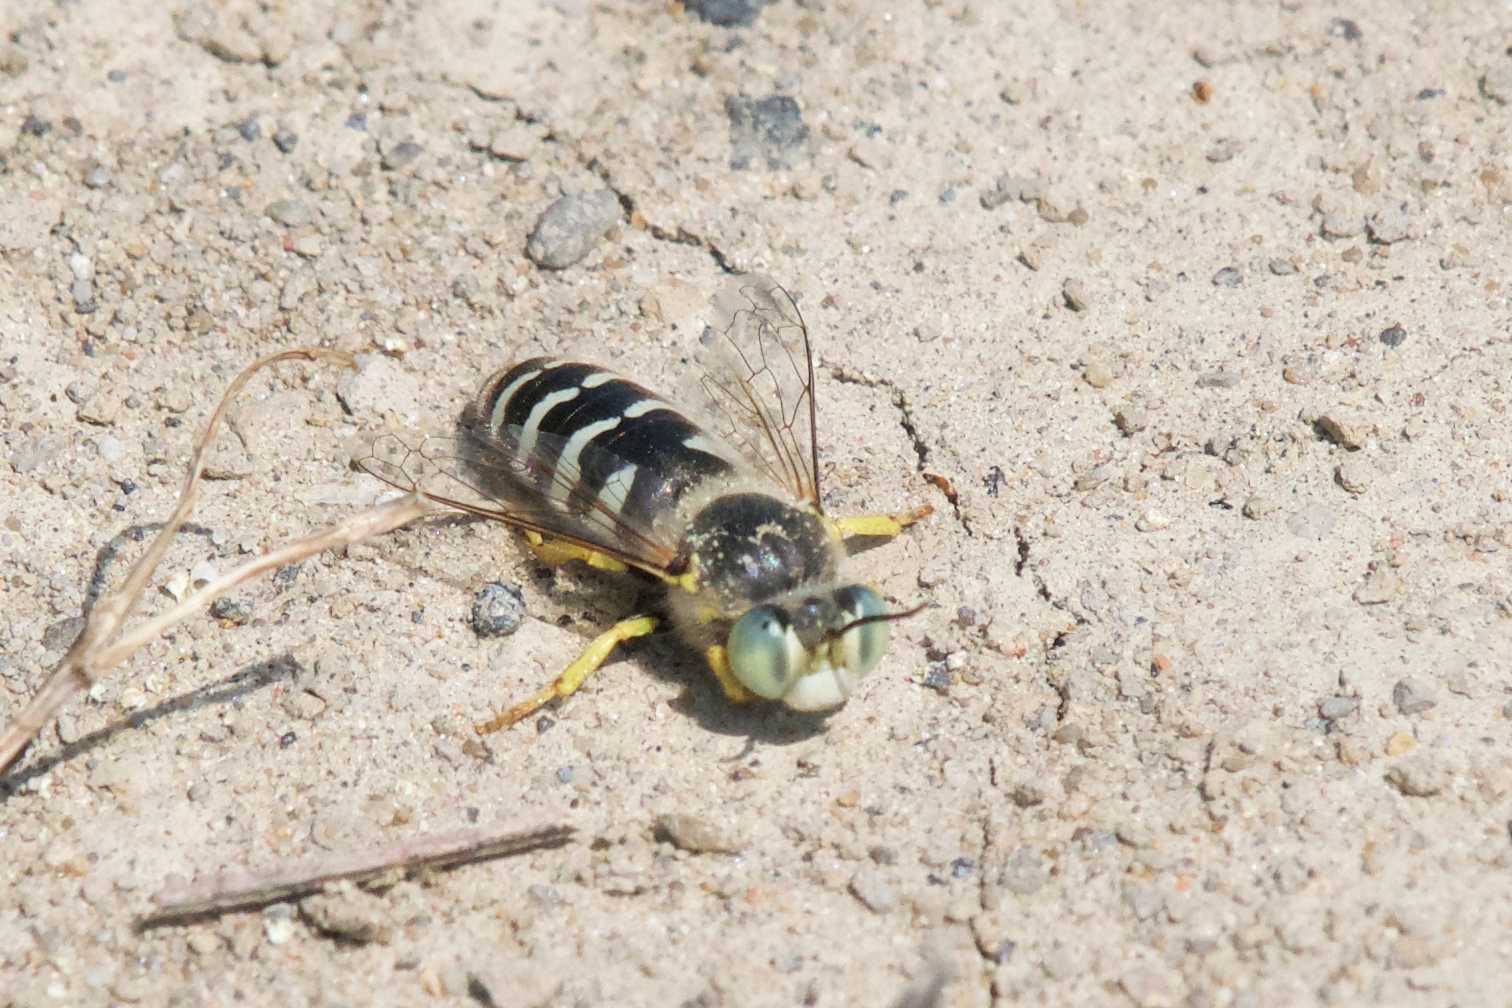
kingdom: Animalia
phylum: Arthropoda
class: Insecta
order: Hymenoptera
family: Crabronidae
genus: Bembix
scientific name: Bembix americana
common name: American sand wasp
